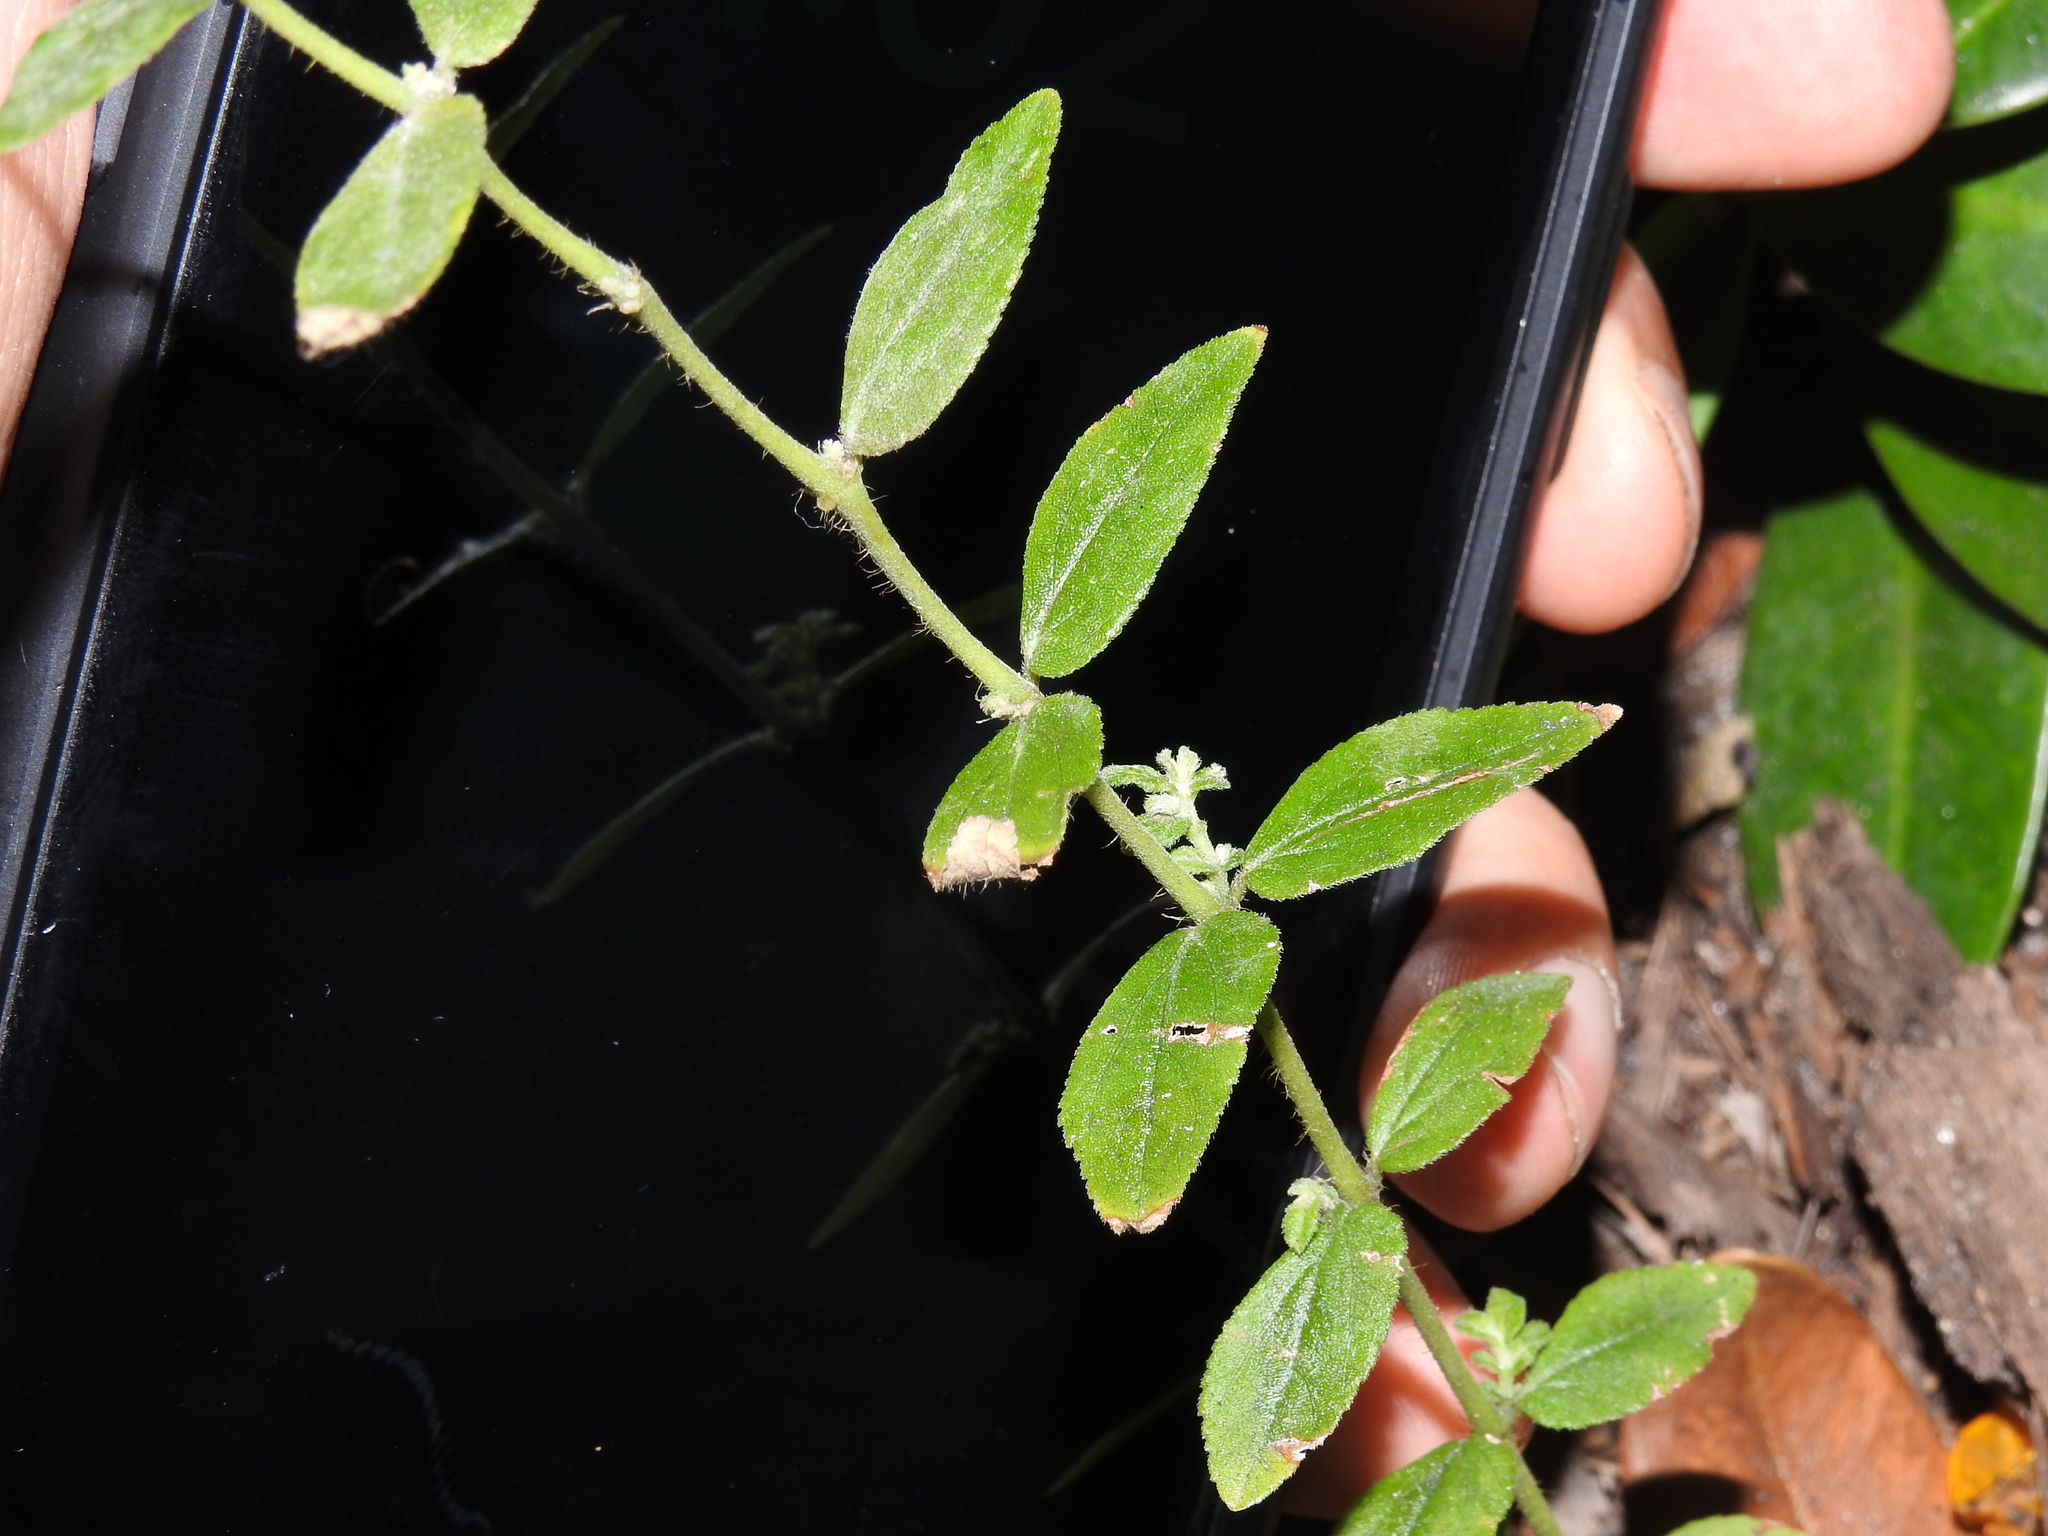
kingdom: Plantae
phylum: Tracheophyta
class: Magnoliopsida
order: Malpighiales
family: Euphorbiaceae
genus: Euphorbia
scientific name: Euphorbia hirta
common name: Pillpod sandmat
